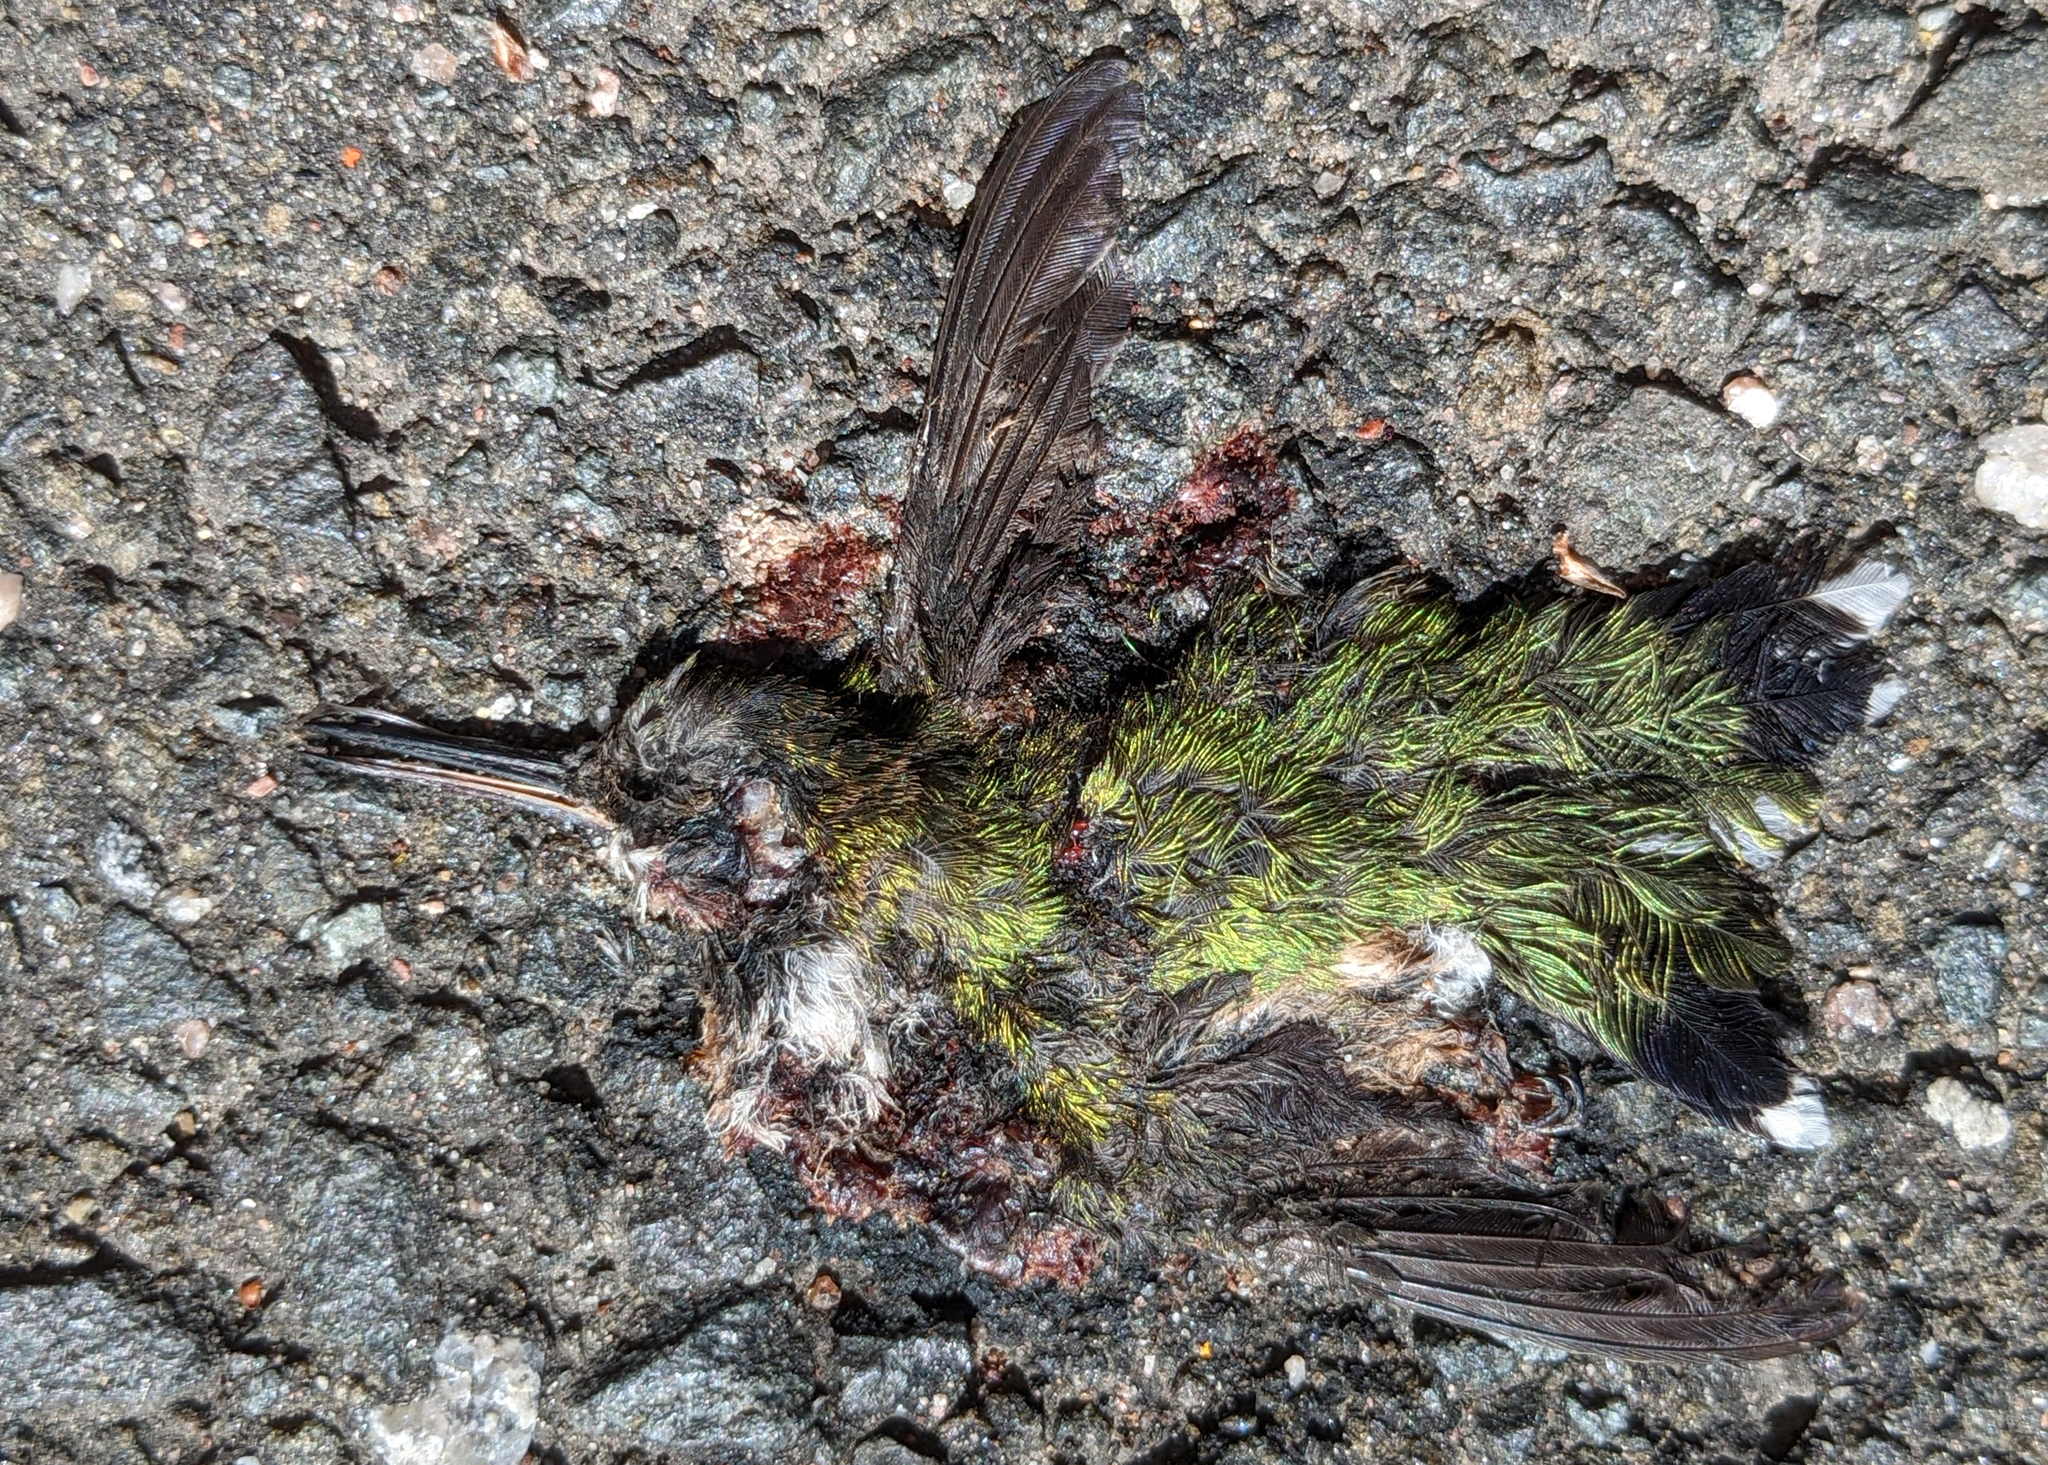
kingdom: Animalia
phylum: Chordata
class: Aves
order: Apodiformes
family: Trochilidae
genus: Archilochus
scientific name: Archilochus colubris
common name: Ruby-throated hummingbird
